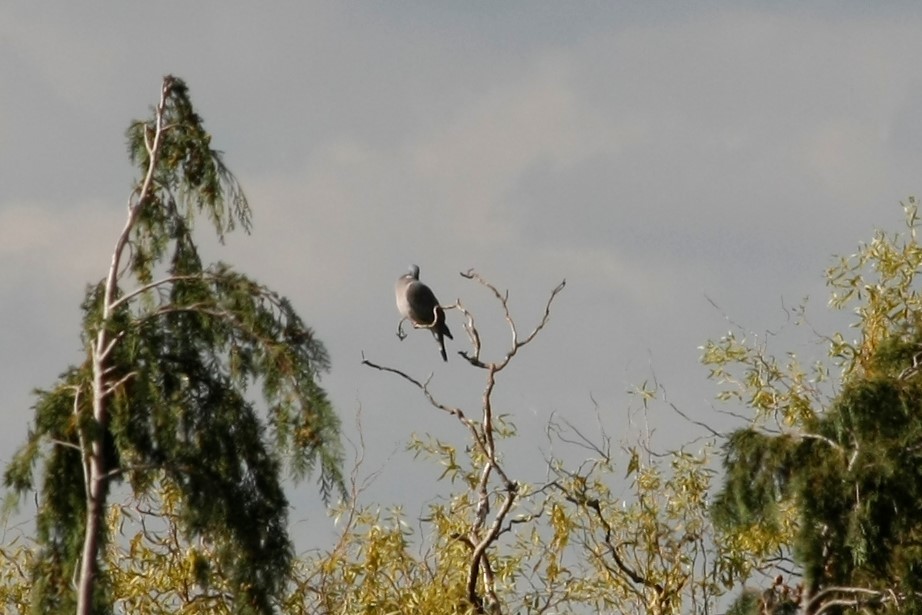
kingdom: Animalia
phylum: Chordata
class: Aves
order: Columbiformes
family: Columbidae
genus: Columba
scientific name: Columba palumbus
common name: Common wood pigeon
